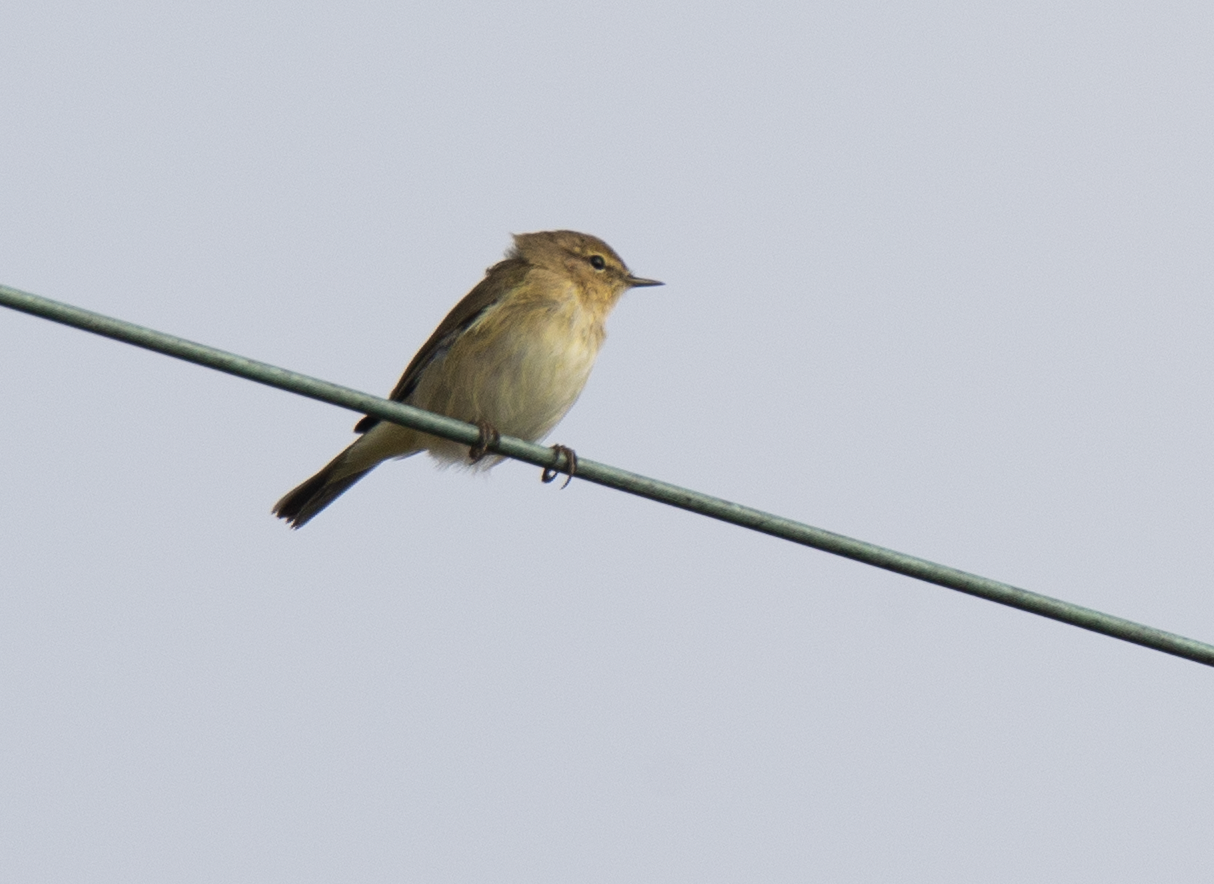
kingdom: Animalia
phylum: Chordata
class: Aves
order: Passeriformes
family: Phylloscopidae
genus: Phylloscopus
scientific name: Phylloscopus collybita
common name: Common chiffchaff
